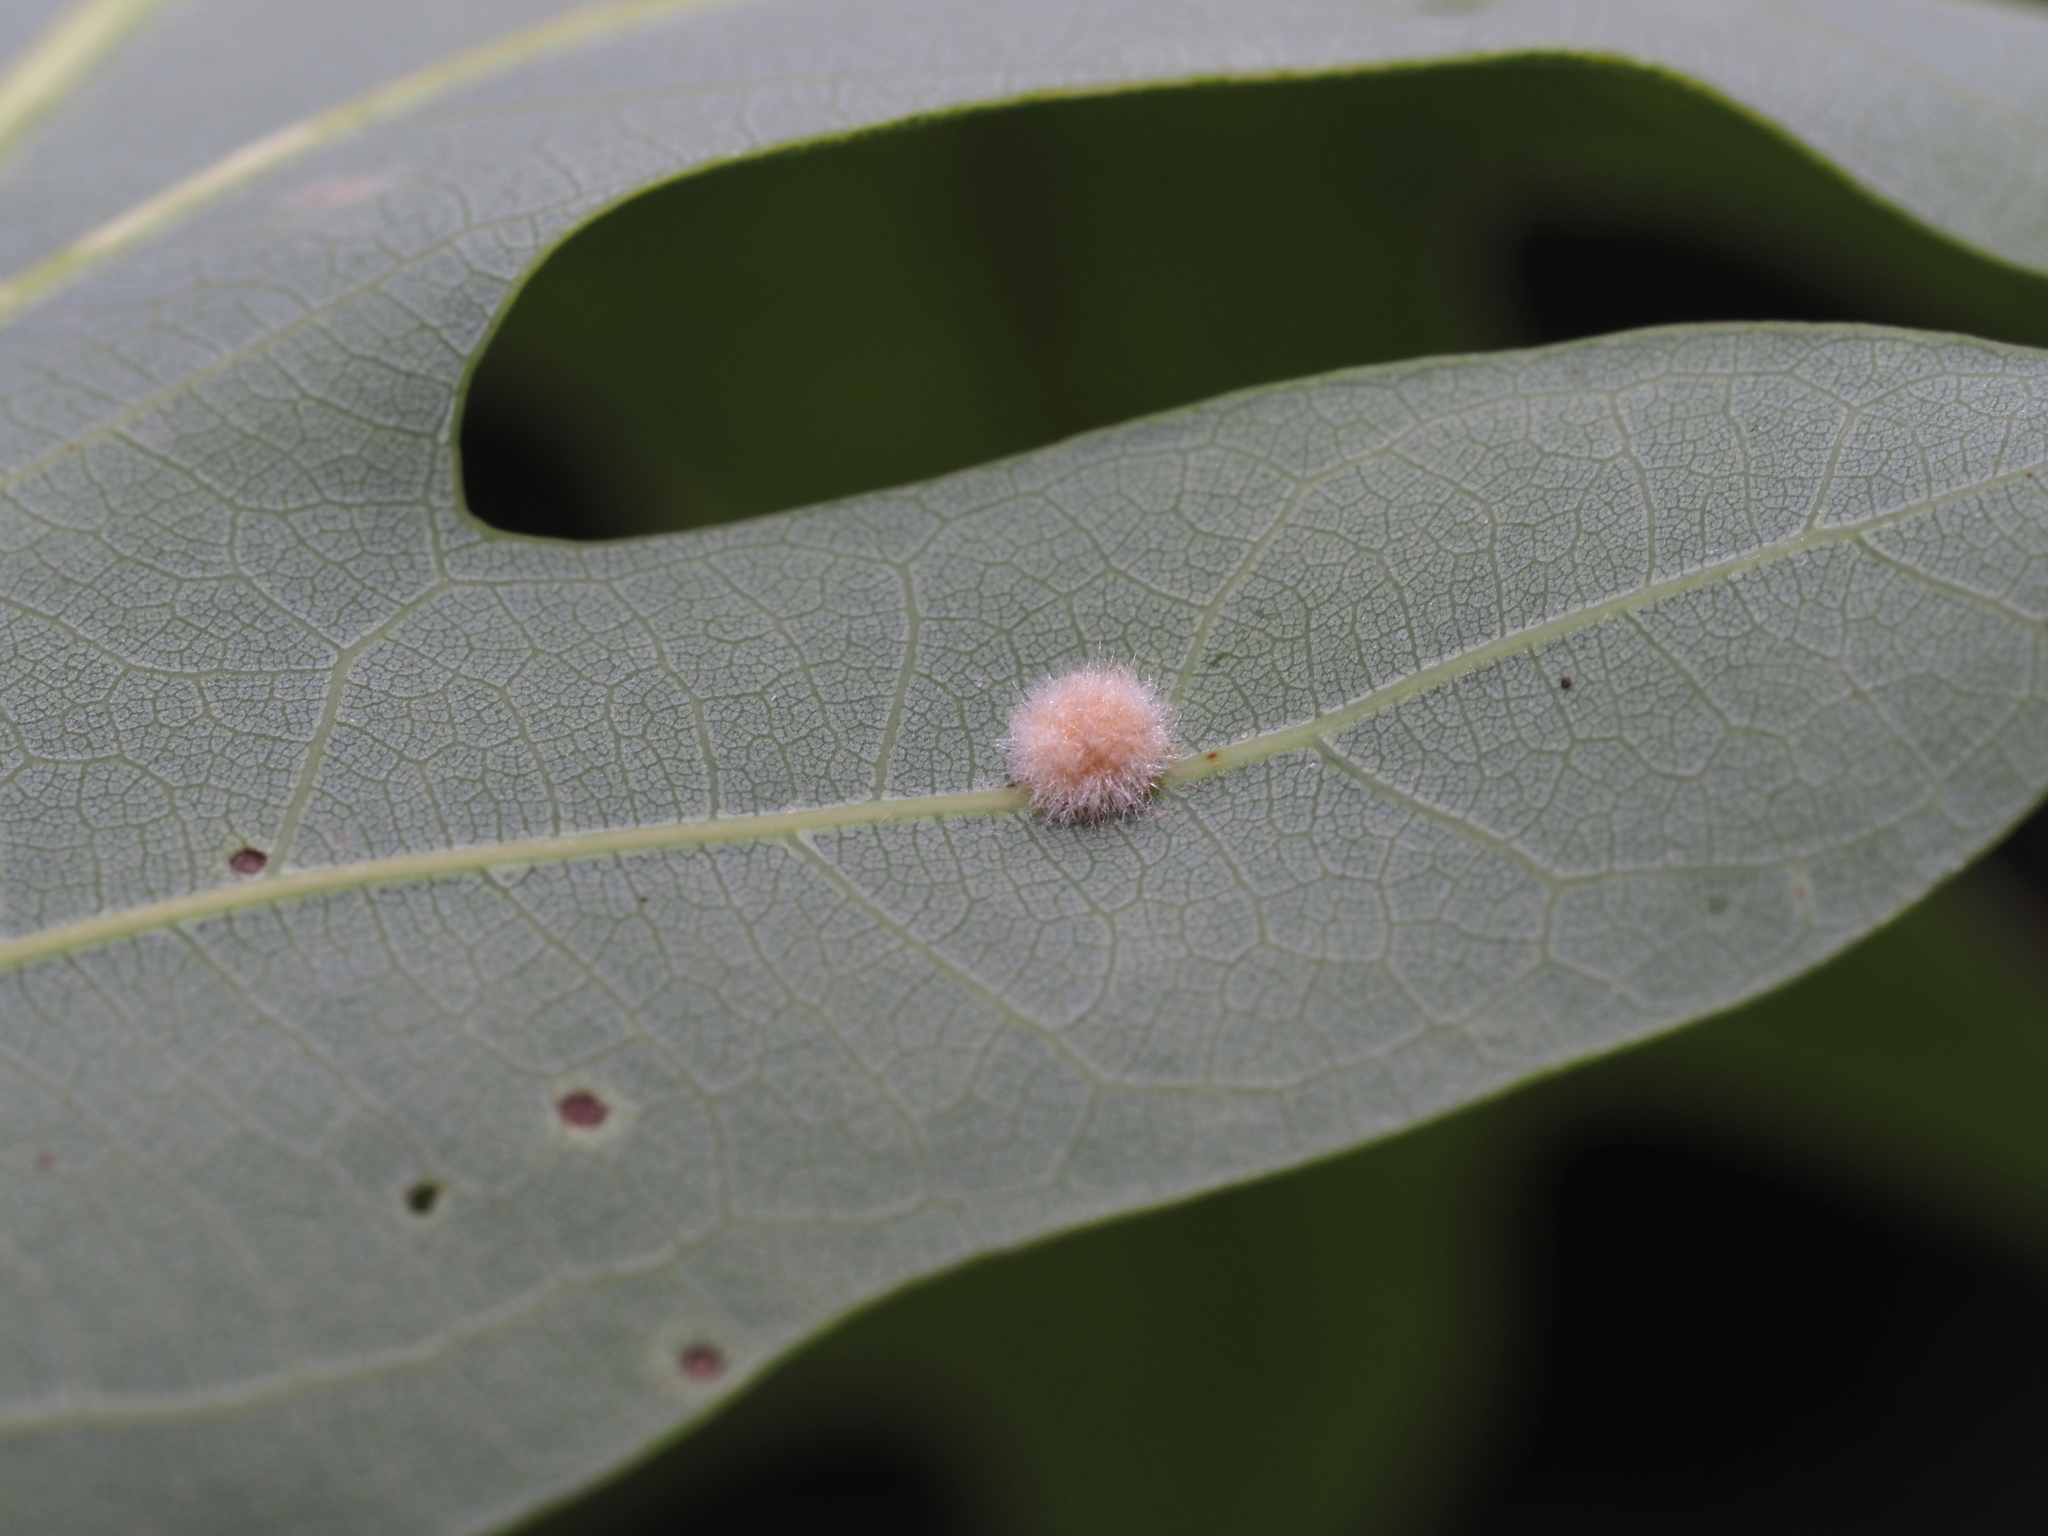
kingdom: Animalia
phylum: Arthropoda
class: Insecta
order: Hymenoptera
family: Cynipidae
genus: Philonix
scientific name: Philonix fulvicollis
